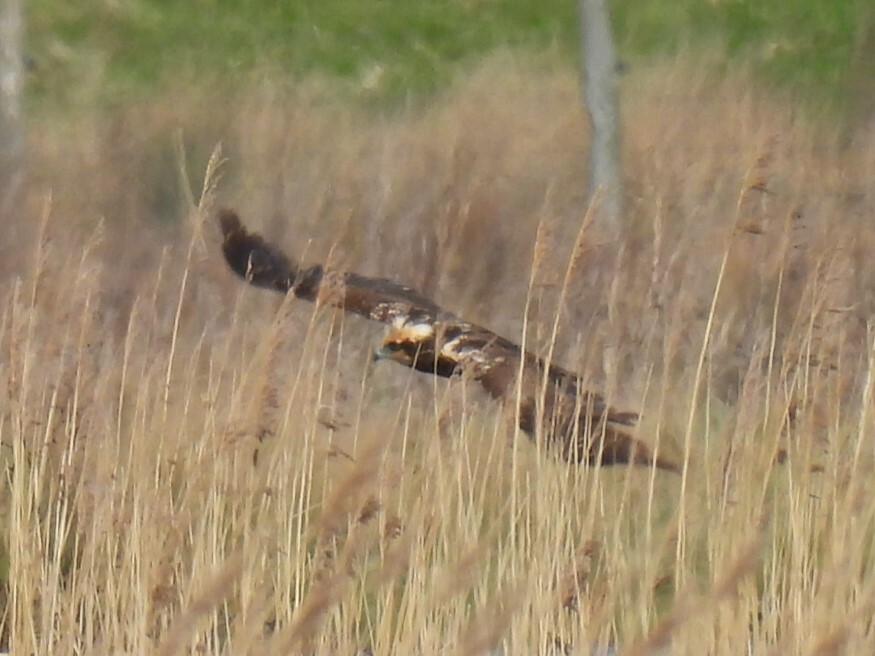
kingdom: Animalia
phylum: Chordata
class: Aves
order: Accipitriformes
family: Accipitridae
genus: Circus
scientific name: Circus aeruginosus
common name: Western marsh harrier
